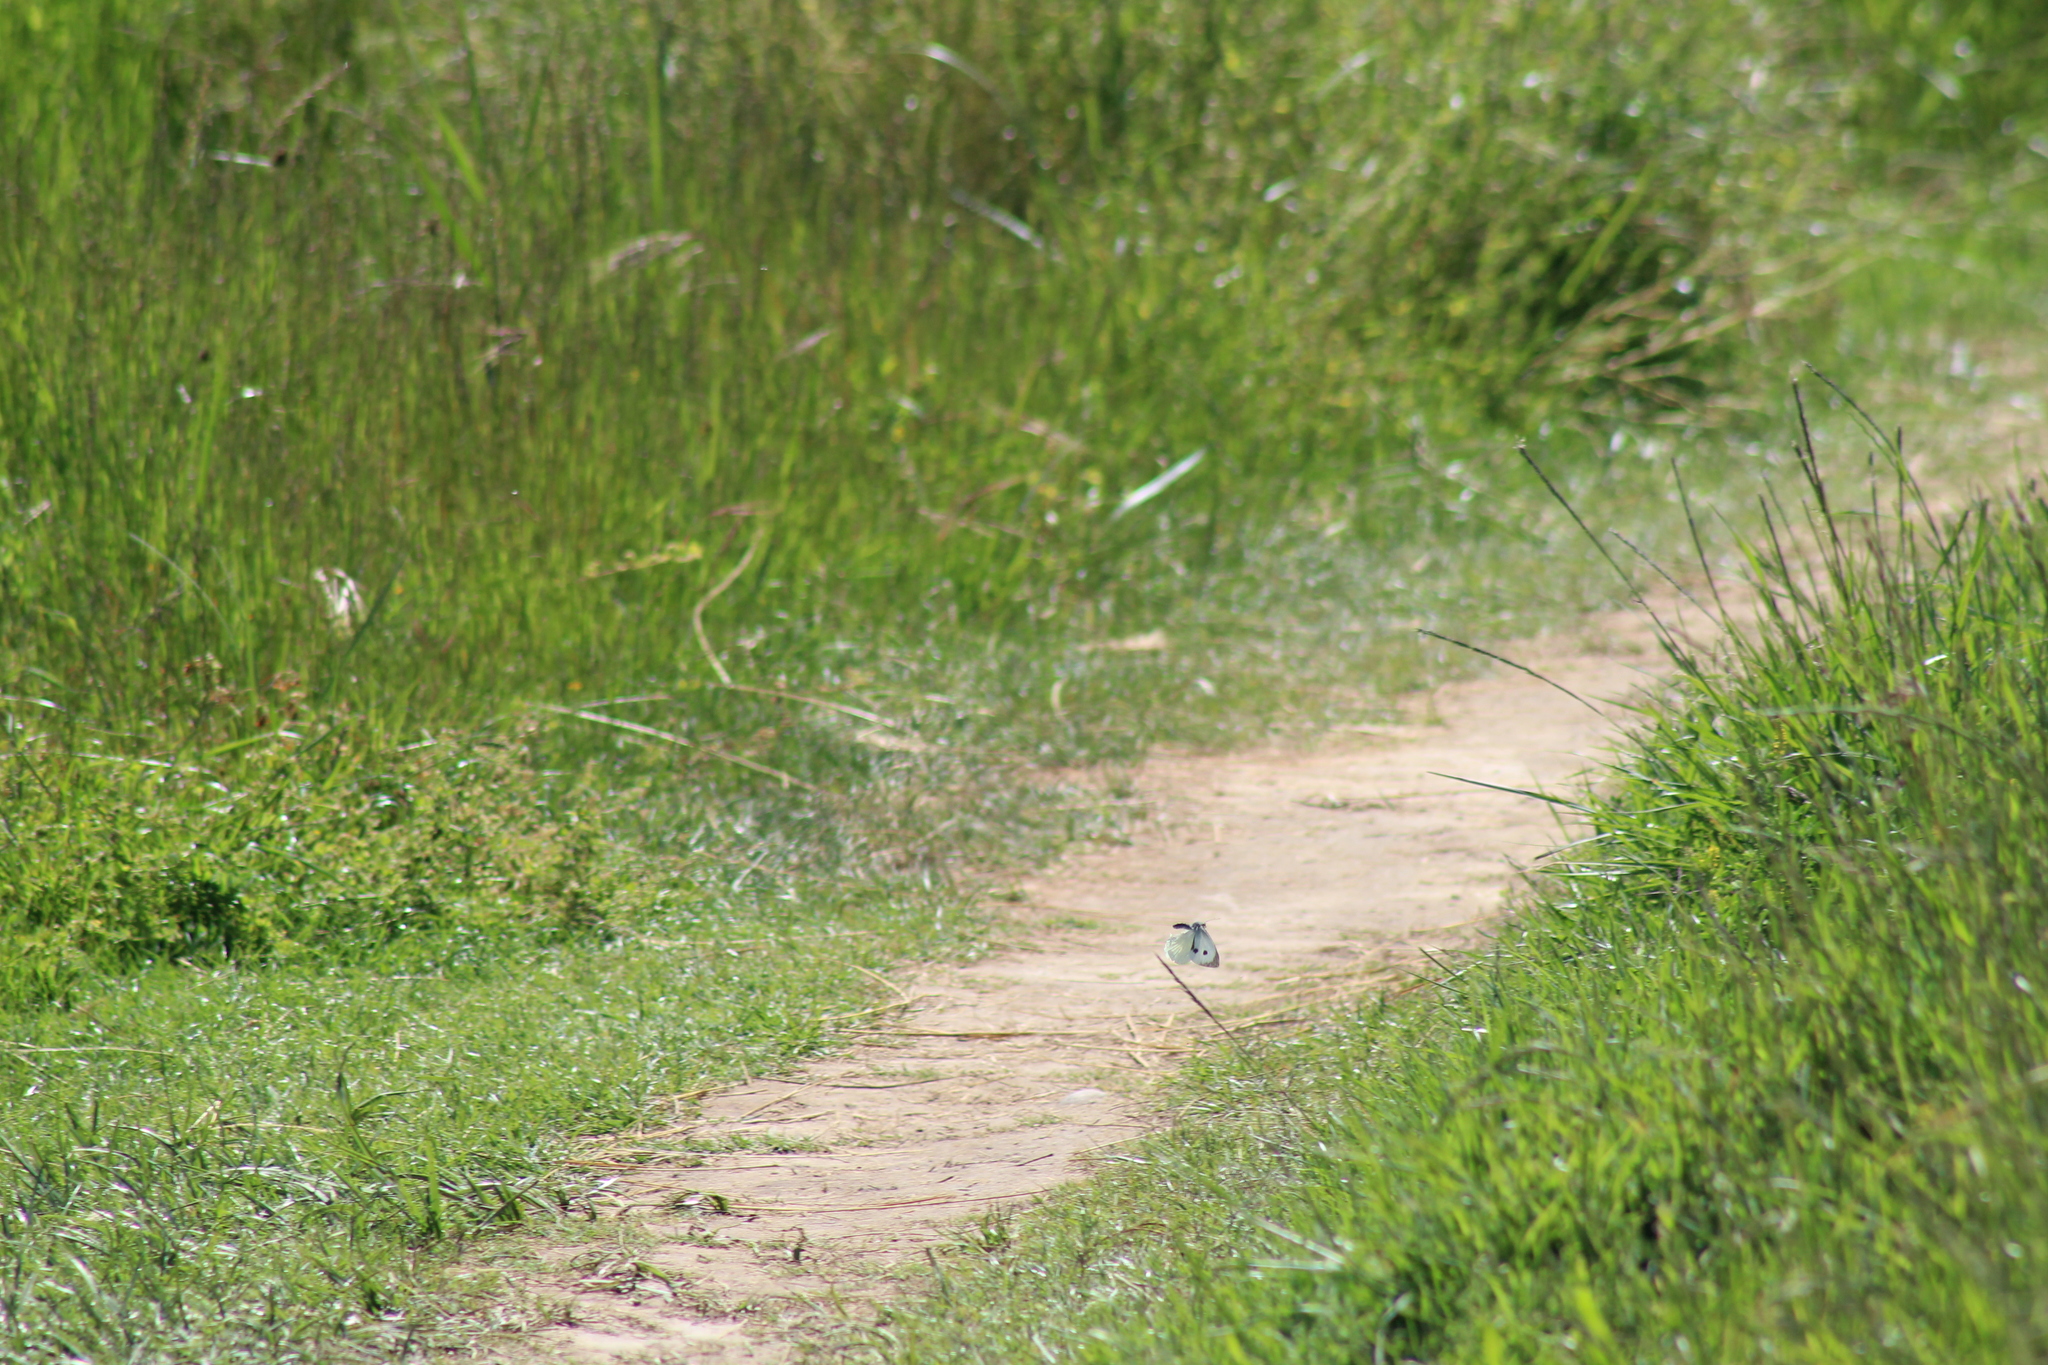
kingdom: Animalia
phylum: Arthropoda
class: Insecta
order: Lepidoptera
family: Pieridae
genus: Pieris
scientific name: Pieris brassicae
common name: Large white
